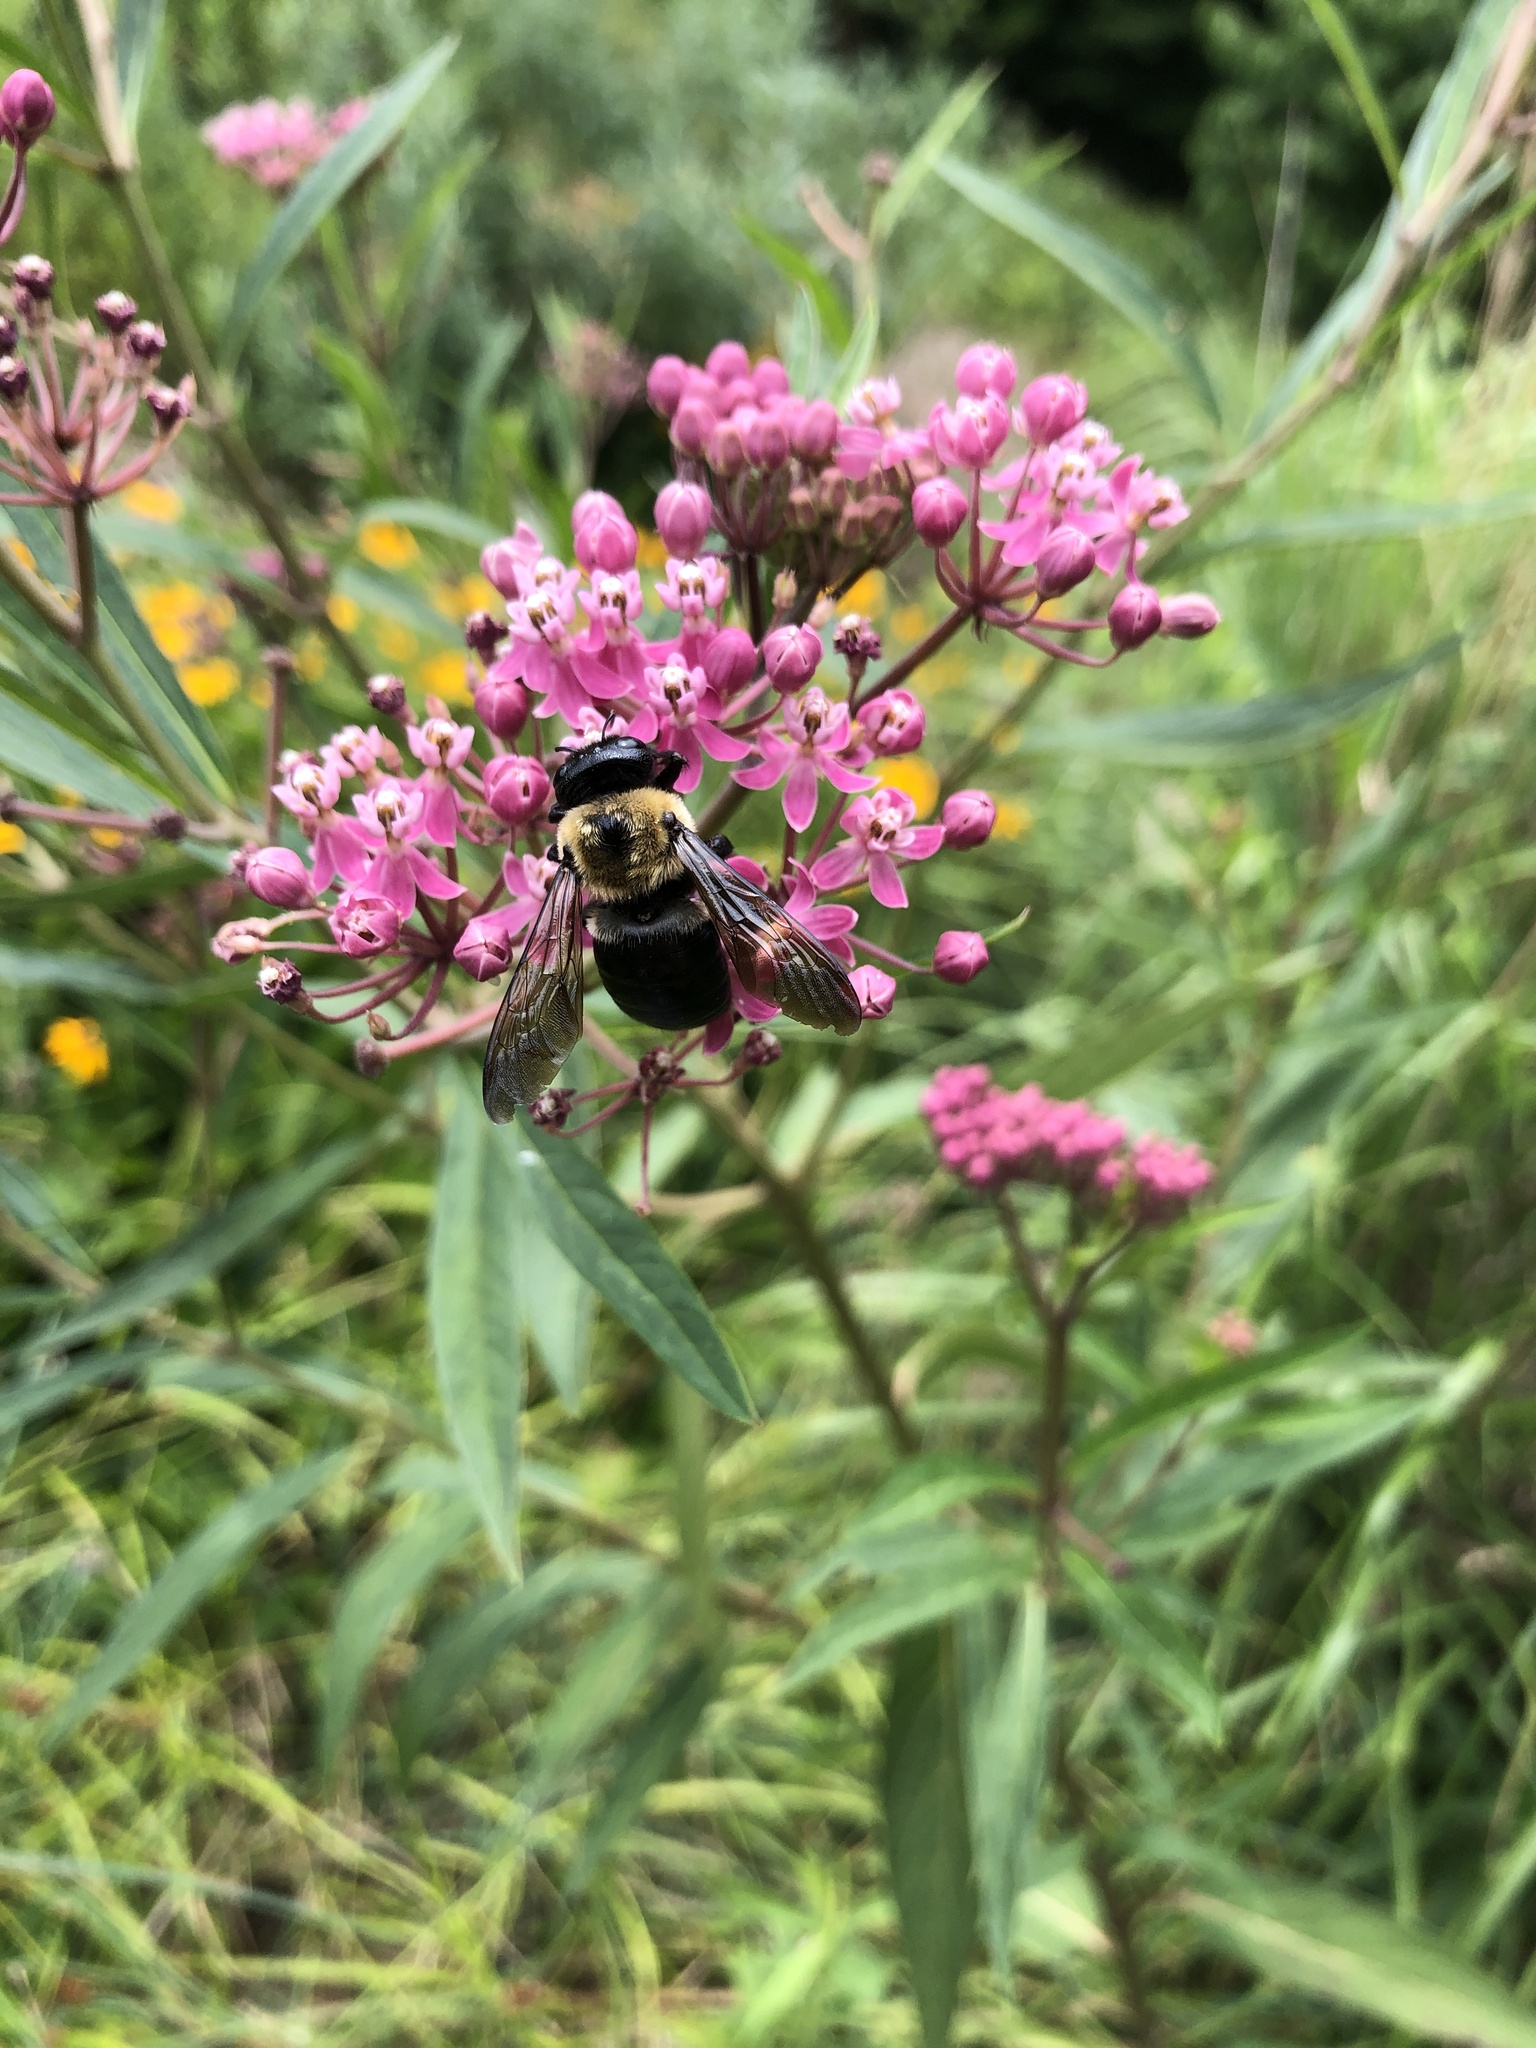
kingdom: Animalia
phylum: Arthropoda
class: Insecta
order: Hymenoptera
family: Apidae
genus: Xylocopa
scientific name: Xylocopa virginica
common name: Carpenter bee
